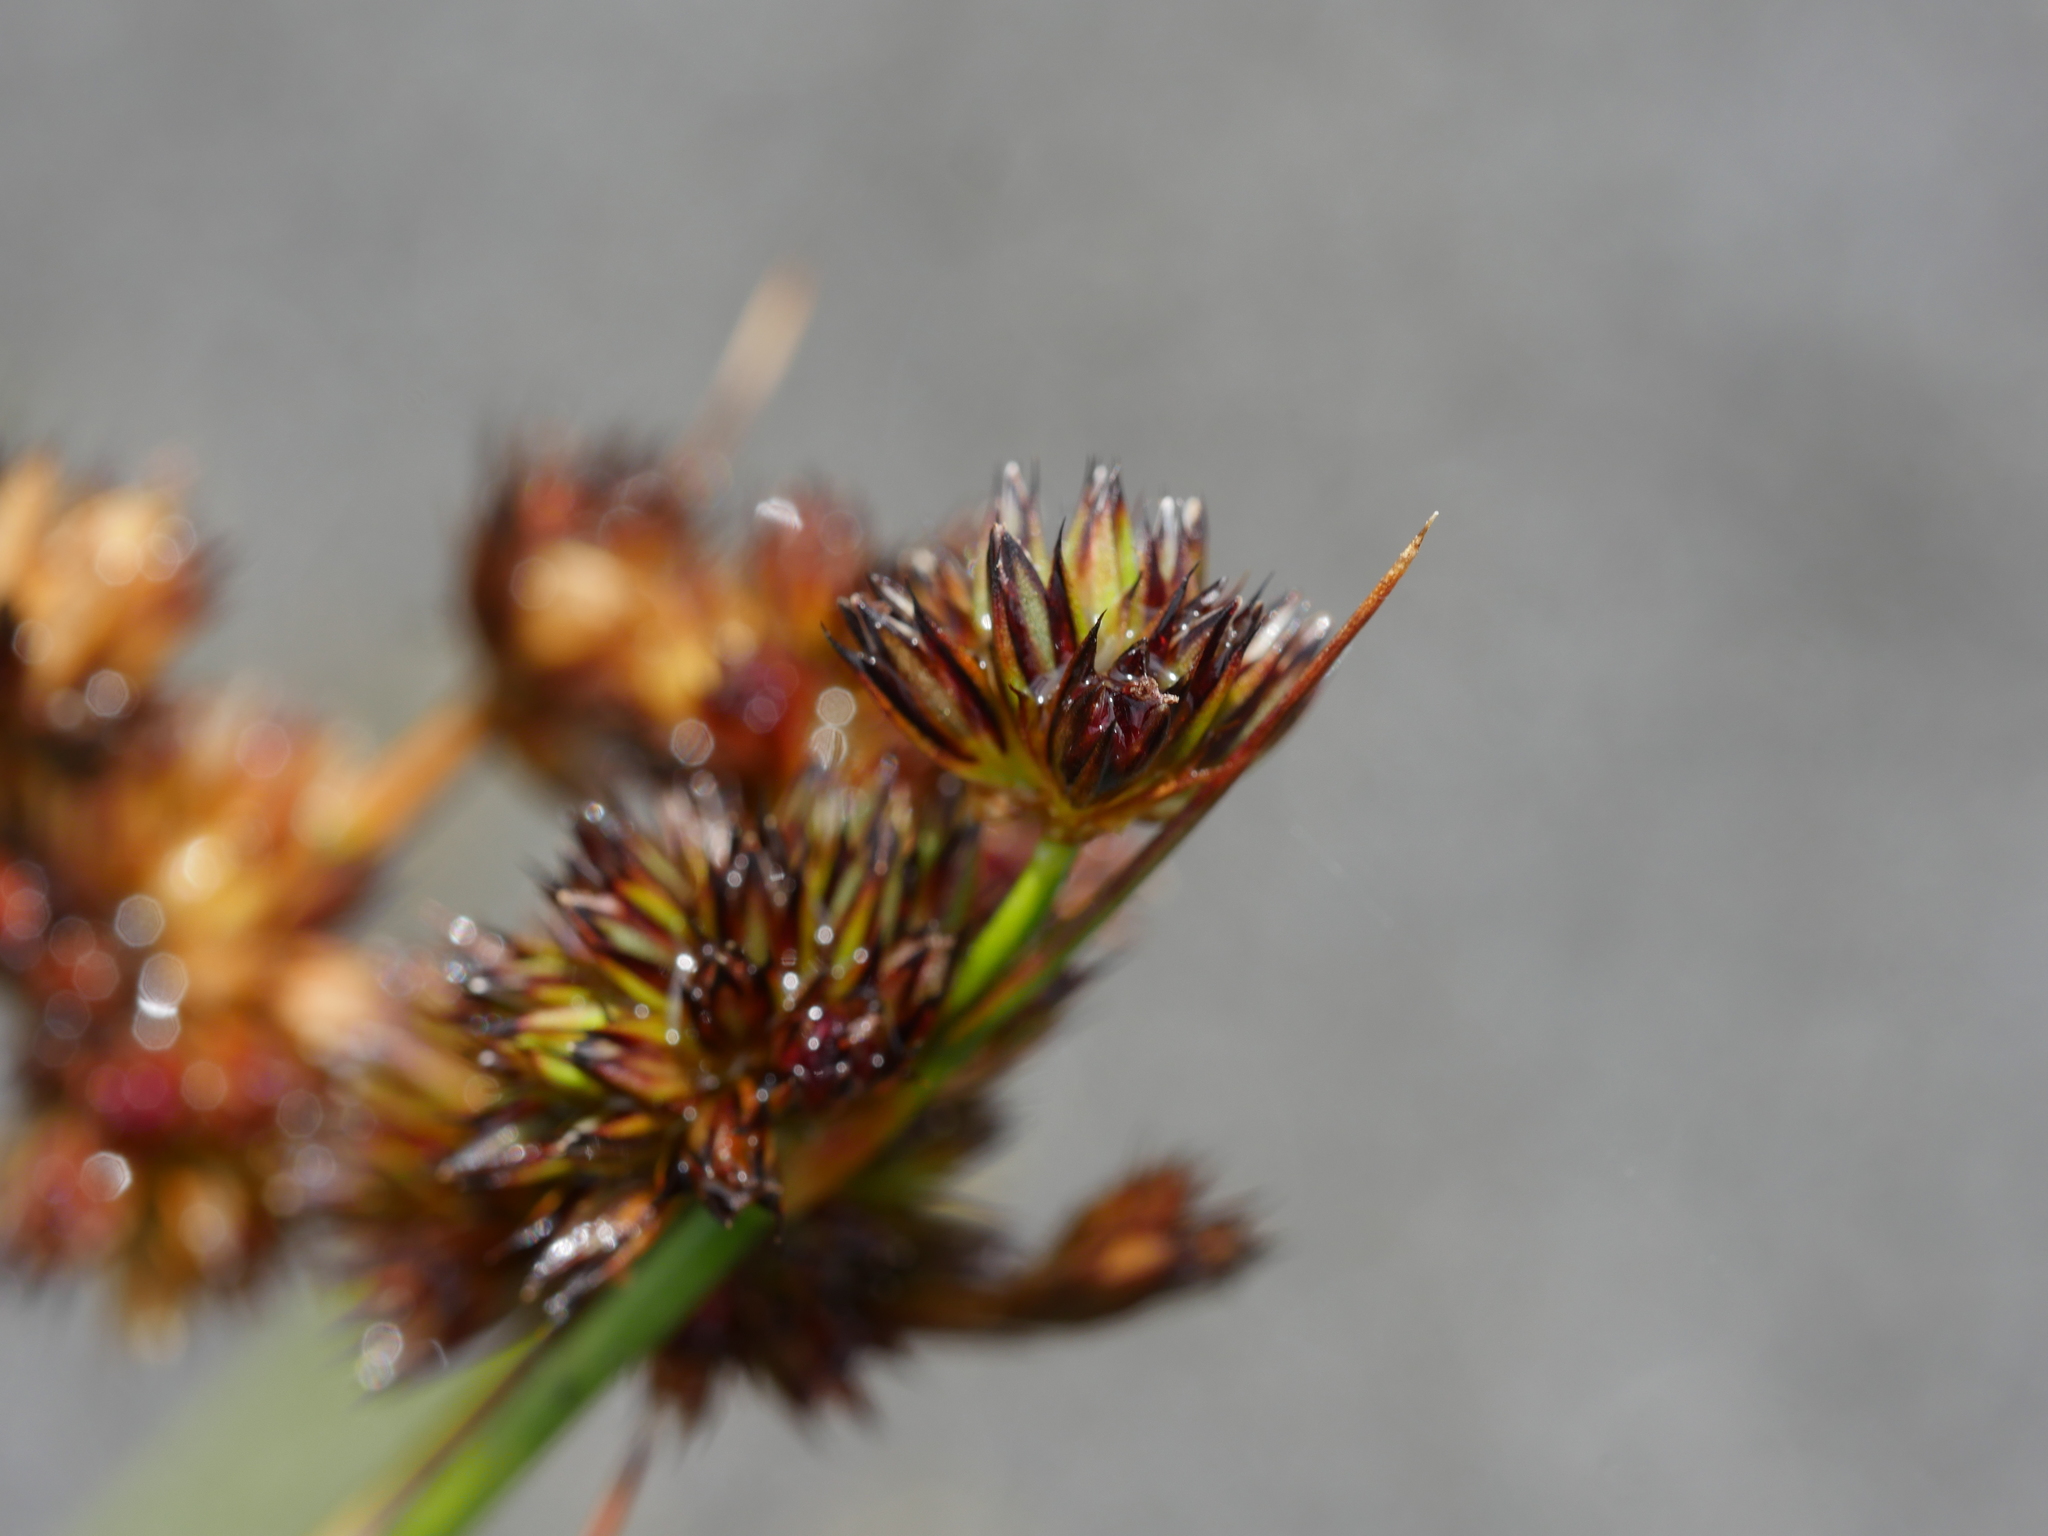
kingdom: Plantae
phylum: Tracheophyta
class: Liliopsida
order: Poales
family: Juncaceae
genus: Juncus
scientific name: Juncus sonderianus
